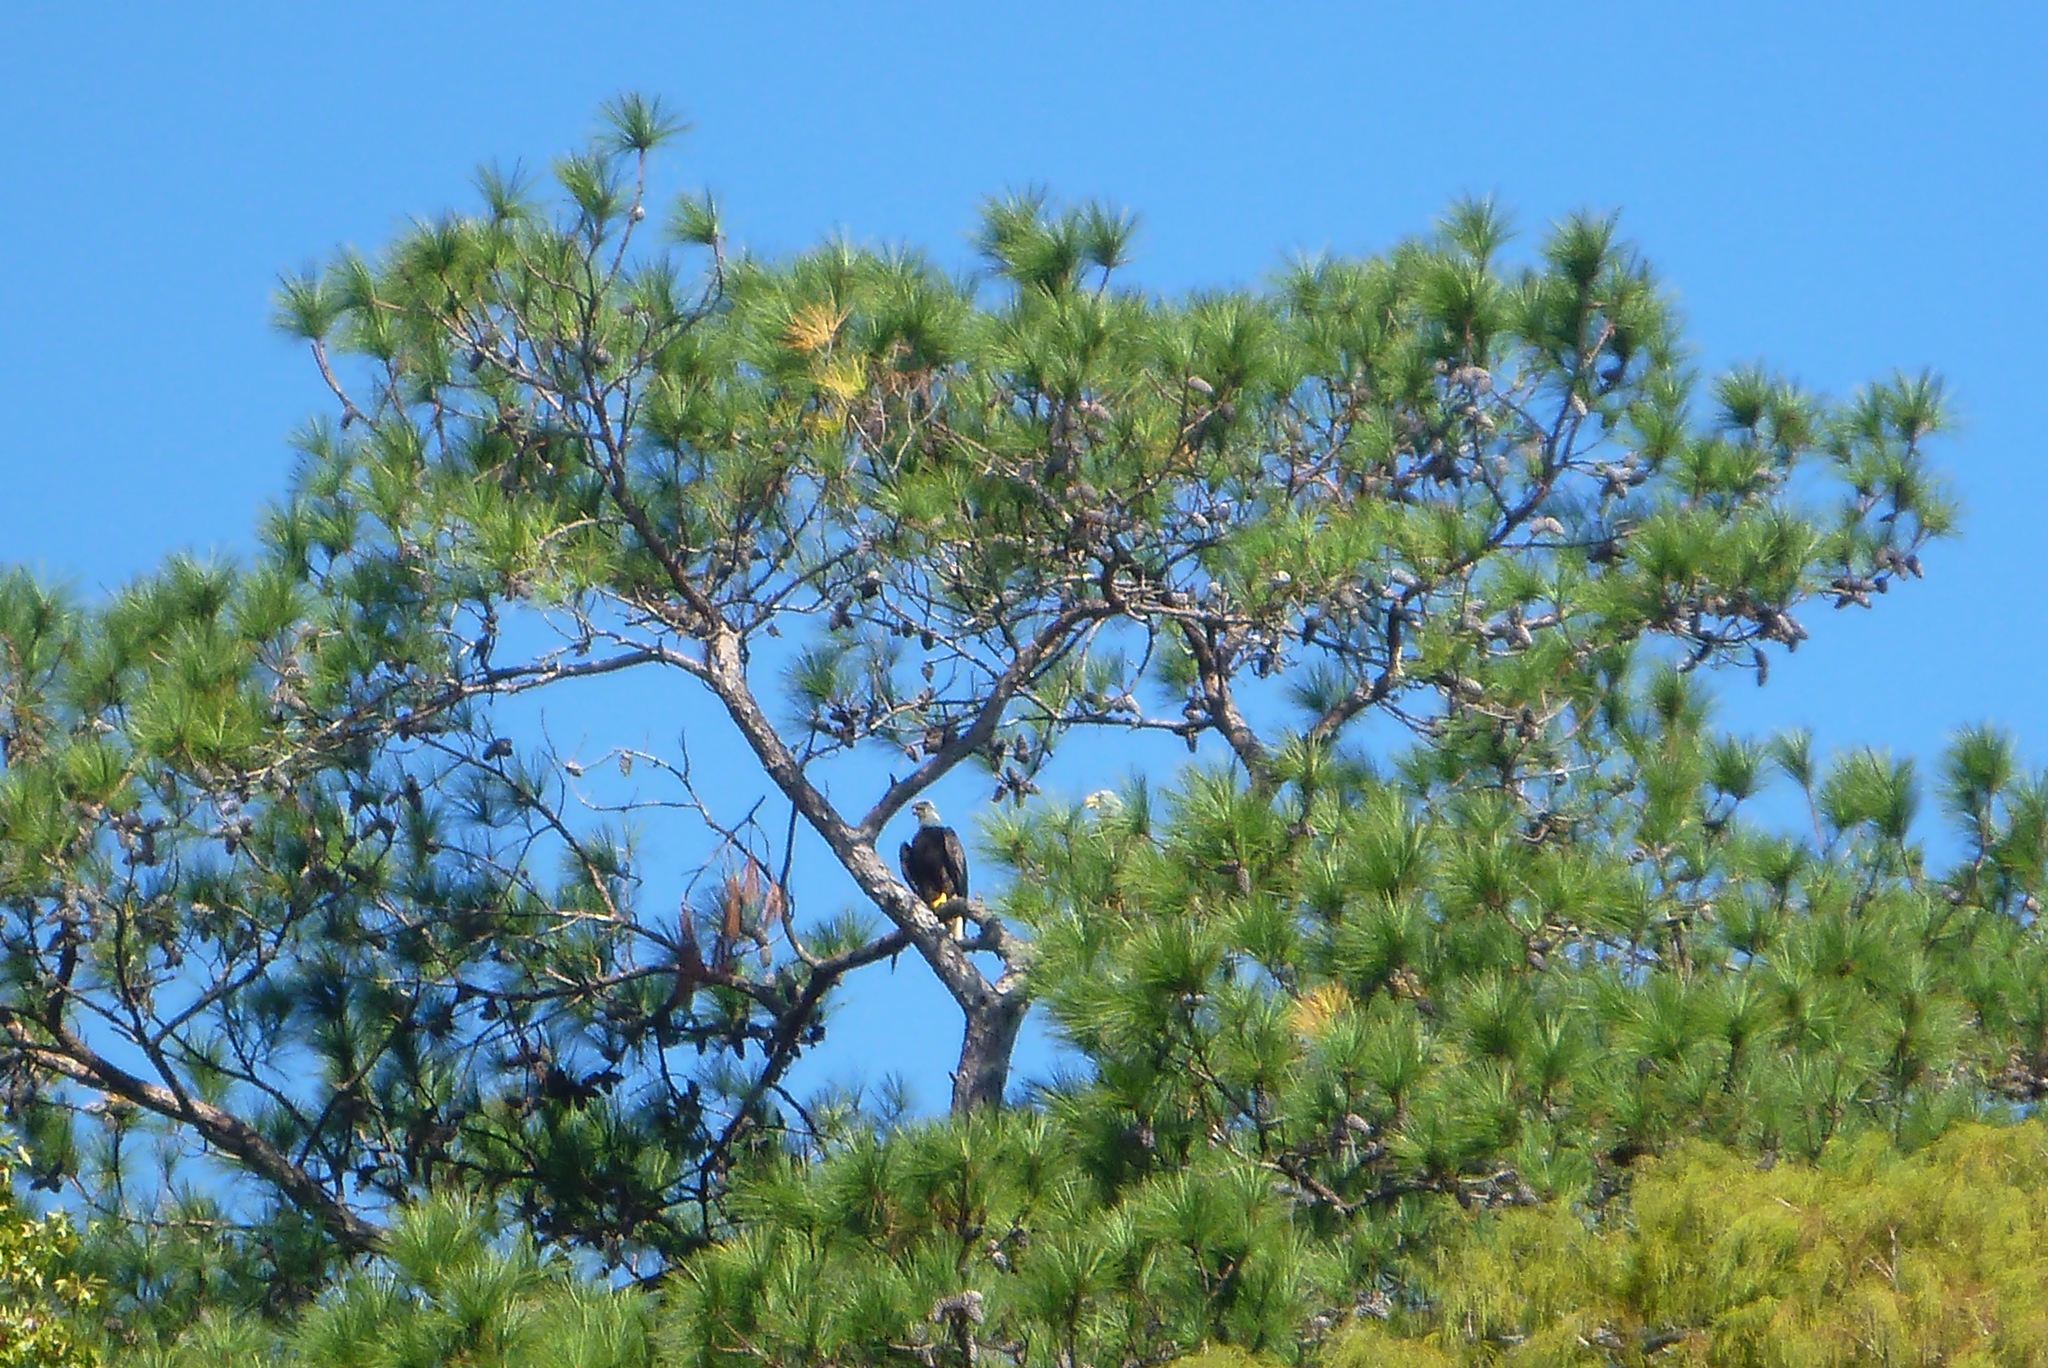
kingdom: Animalia
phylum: Chordata
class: Aves
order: Accipitriformes
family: Accipitridae
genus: Haliaeetus
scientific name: Haliaeetus leucocephalus
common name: Bald eagle
